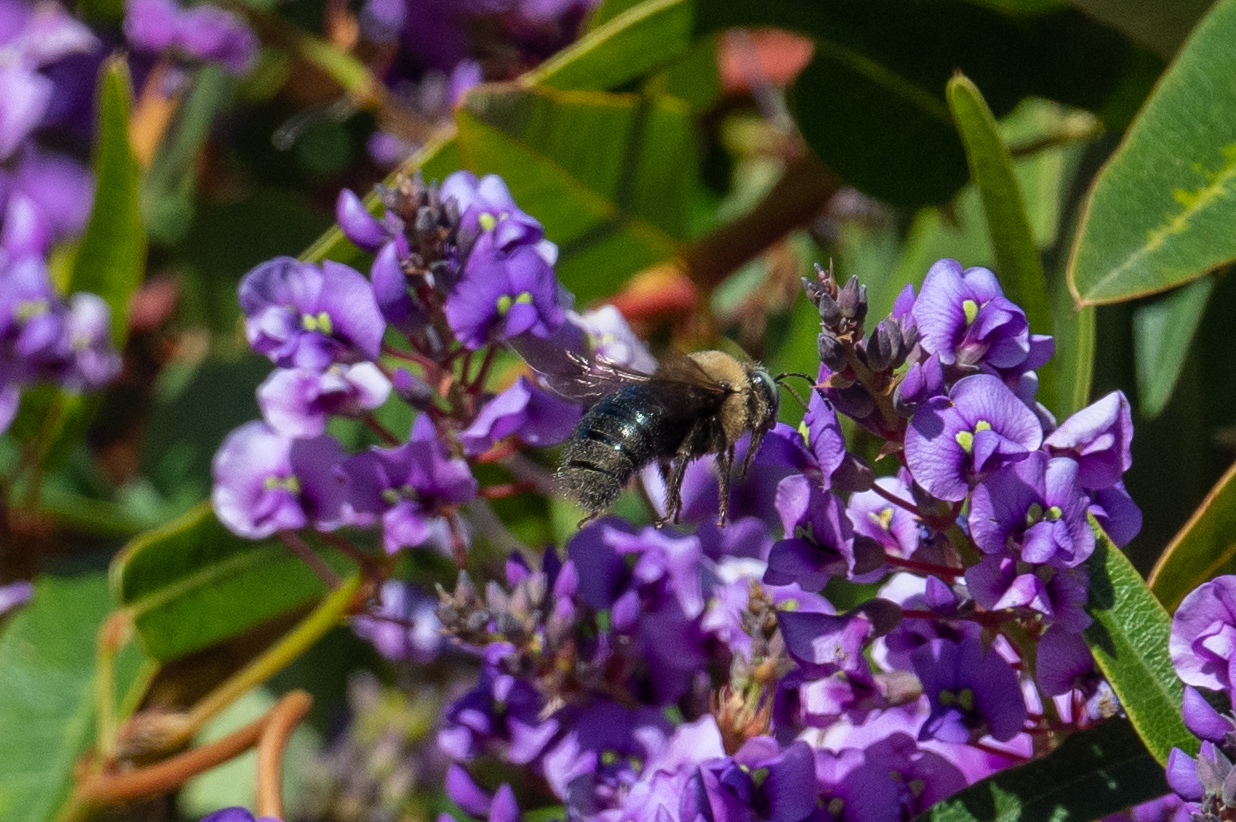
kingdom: Animalia
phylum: Arthropoda
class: Insecta
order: Hymenoptera
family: Apidae
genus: Xylocopa
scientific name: Xylocopa tabaniformis
